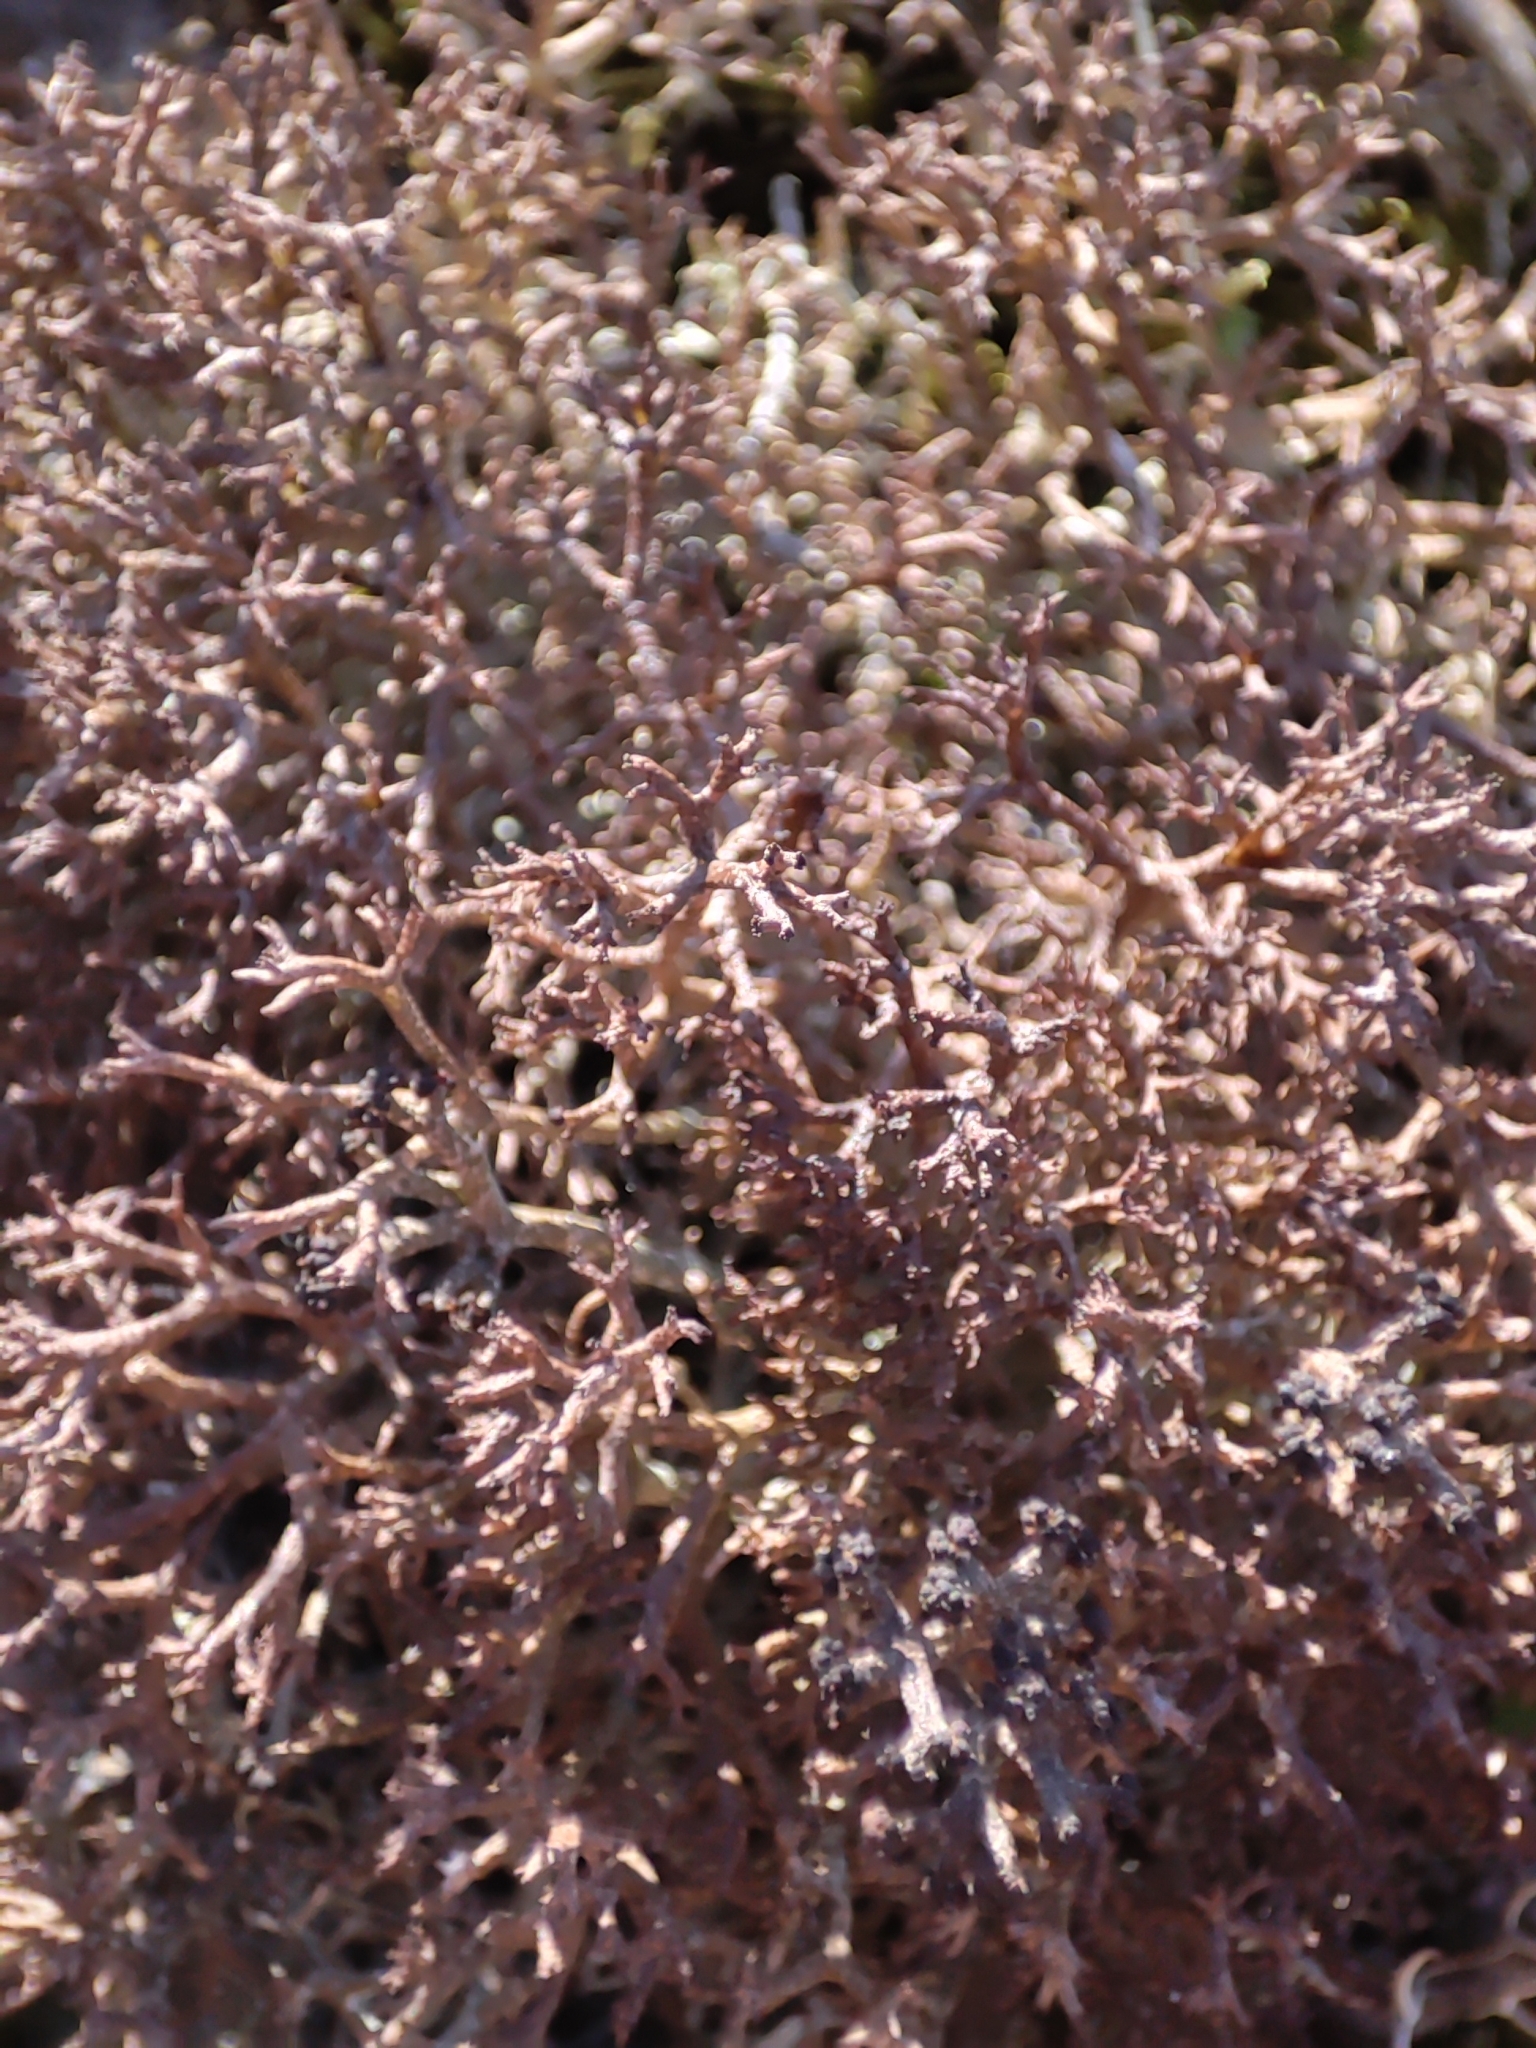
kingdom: Fungi
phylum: Ascomycota
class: Lecanoromycetes
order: Lecanorales
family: Cladoniaceae
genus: Cladonia
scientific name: Cladonia furcata
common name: Many-forked cladonia
